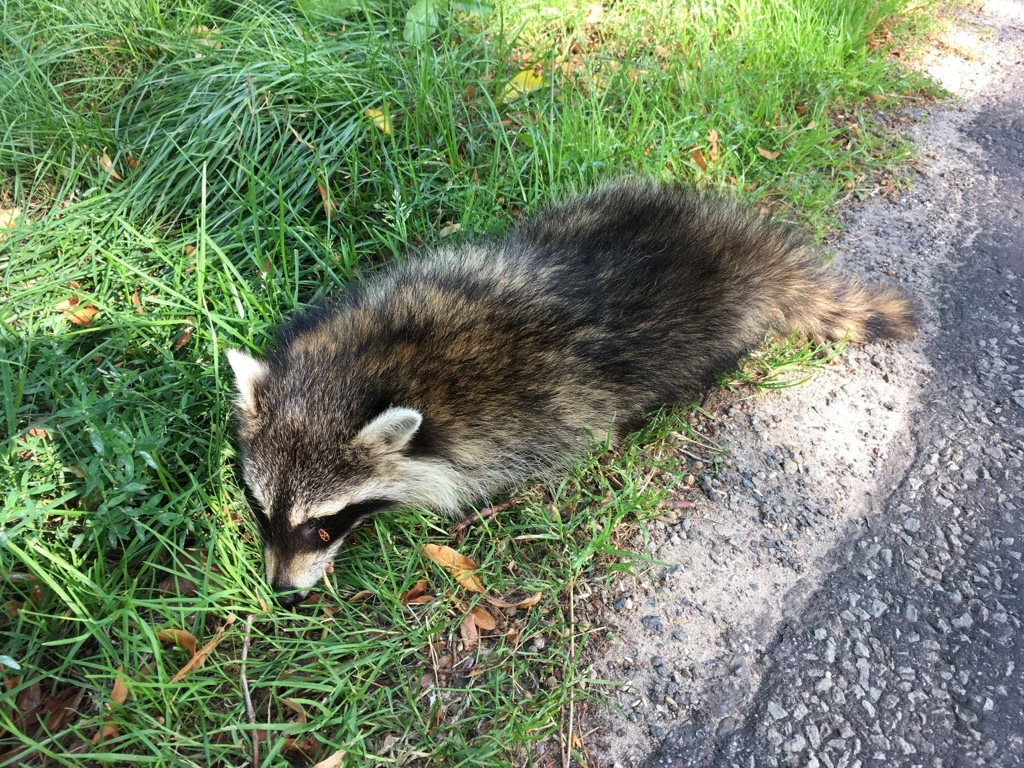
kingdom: Animalia
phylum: Chordata
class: Mammalia
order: Carnivora
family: Procyonidae
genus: Procyon
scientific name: Procyon lotor
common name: Raccoon
